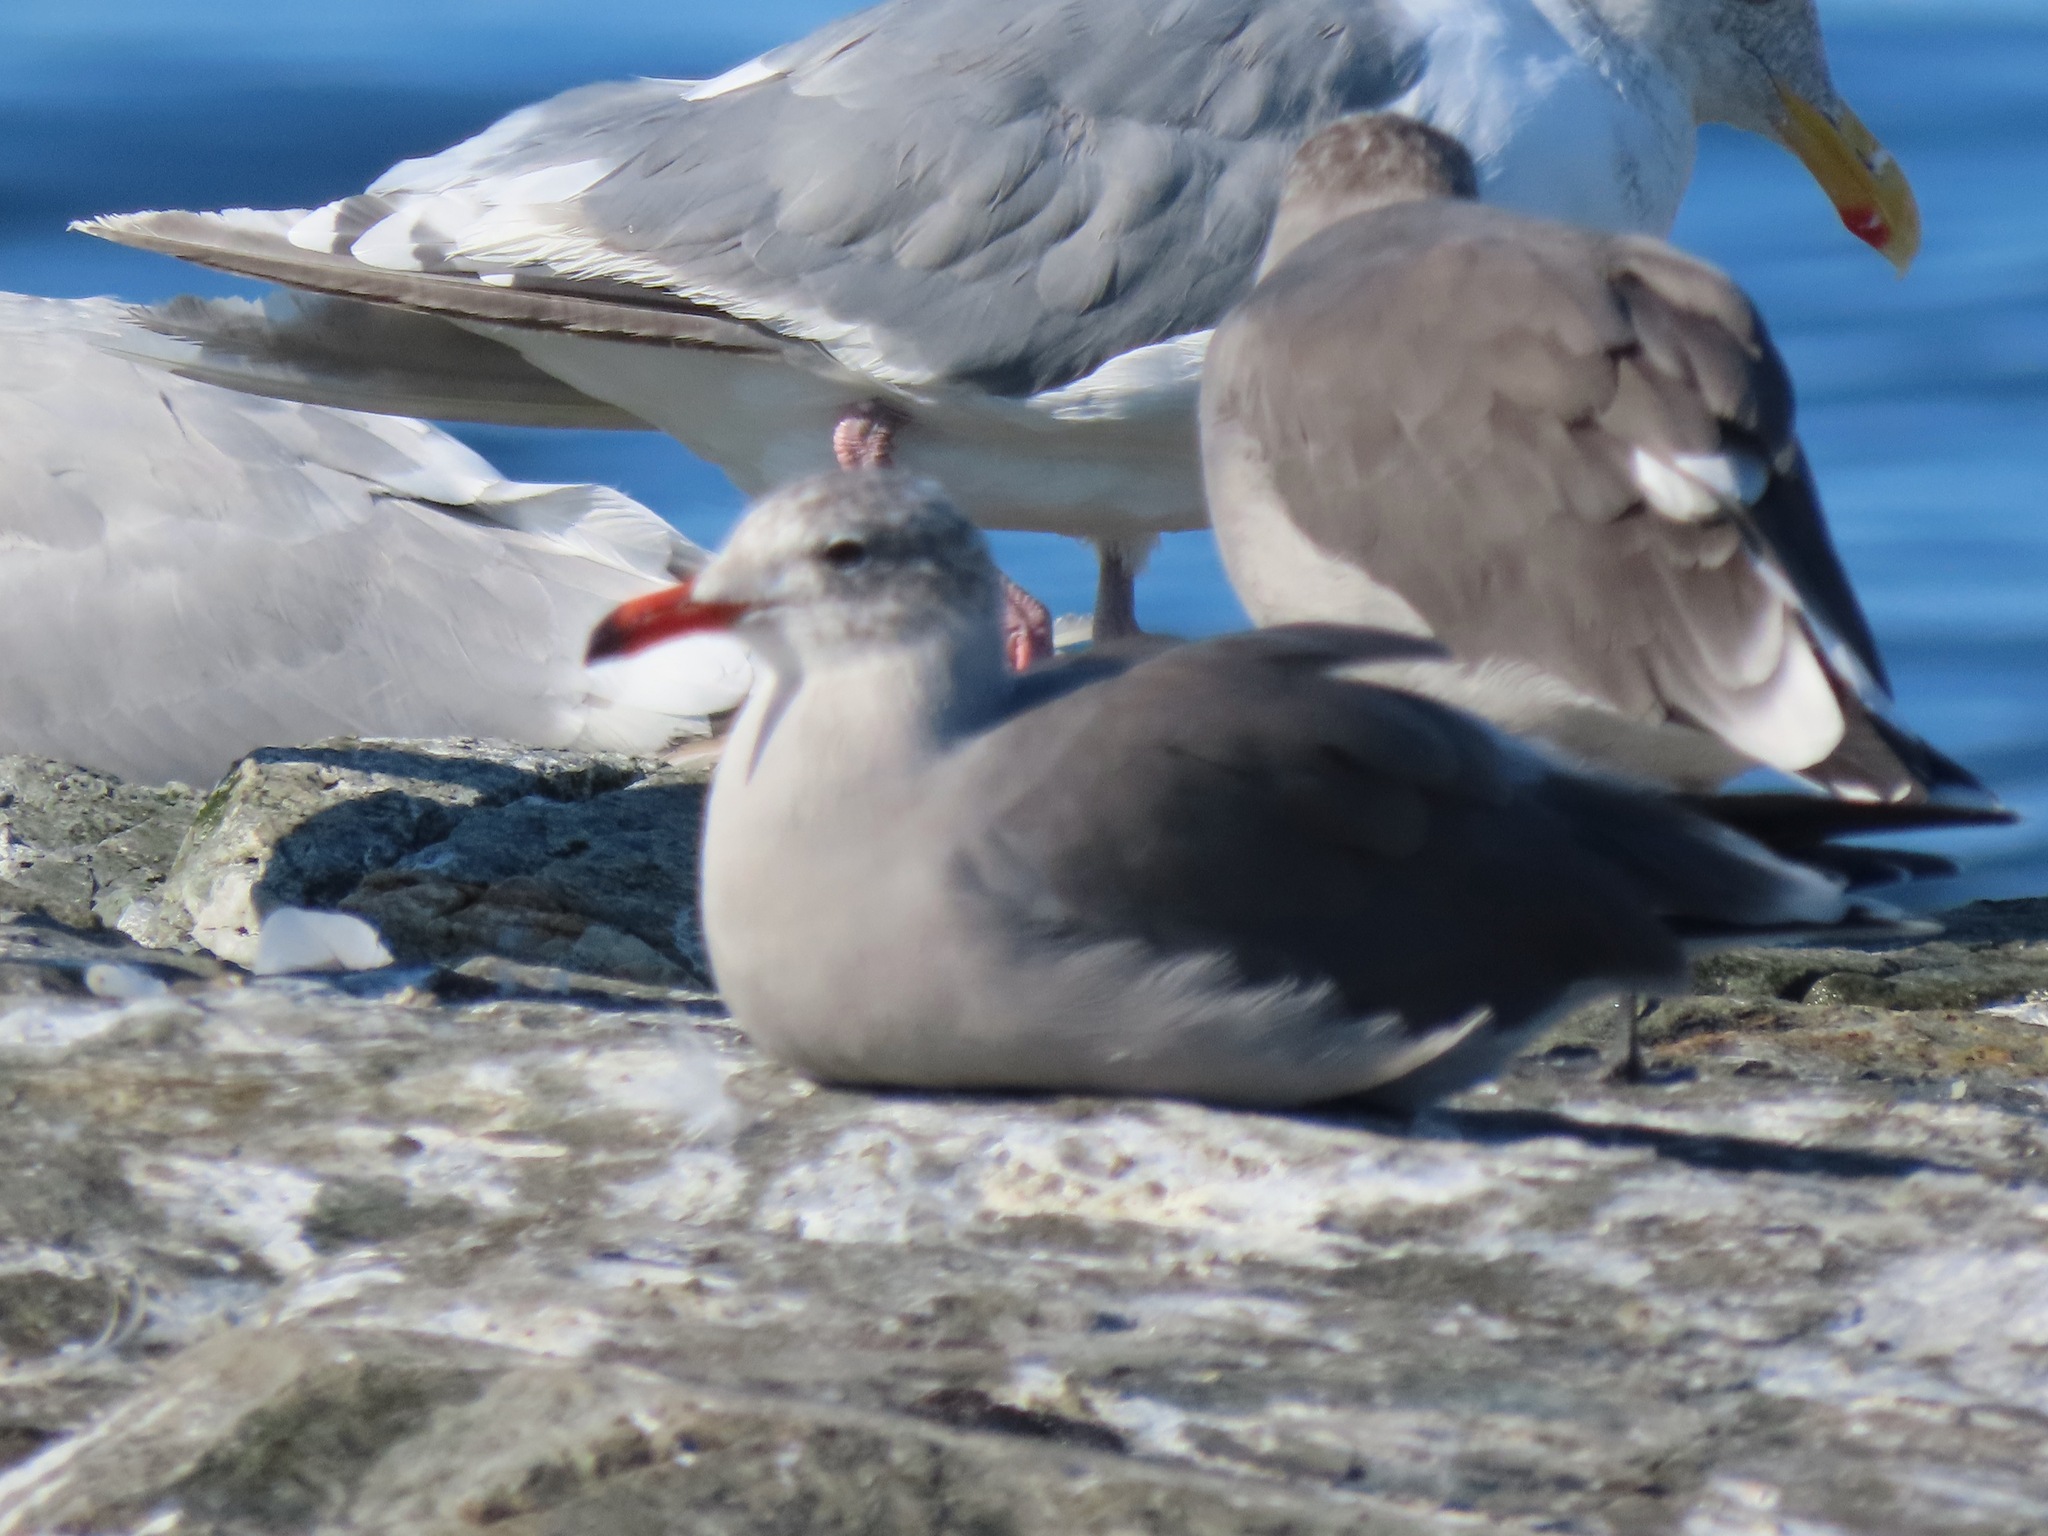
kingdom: Animalia
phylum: Chordata
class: Aves
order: Charadriiformes
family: Laridae
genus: Larus
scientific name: Larus heermanni
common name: Heermann's gull
